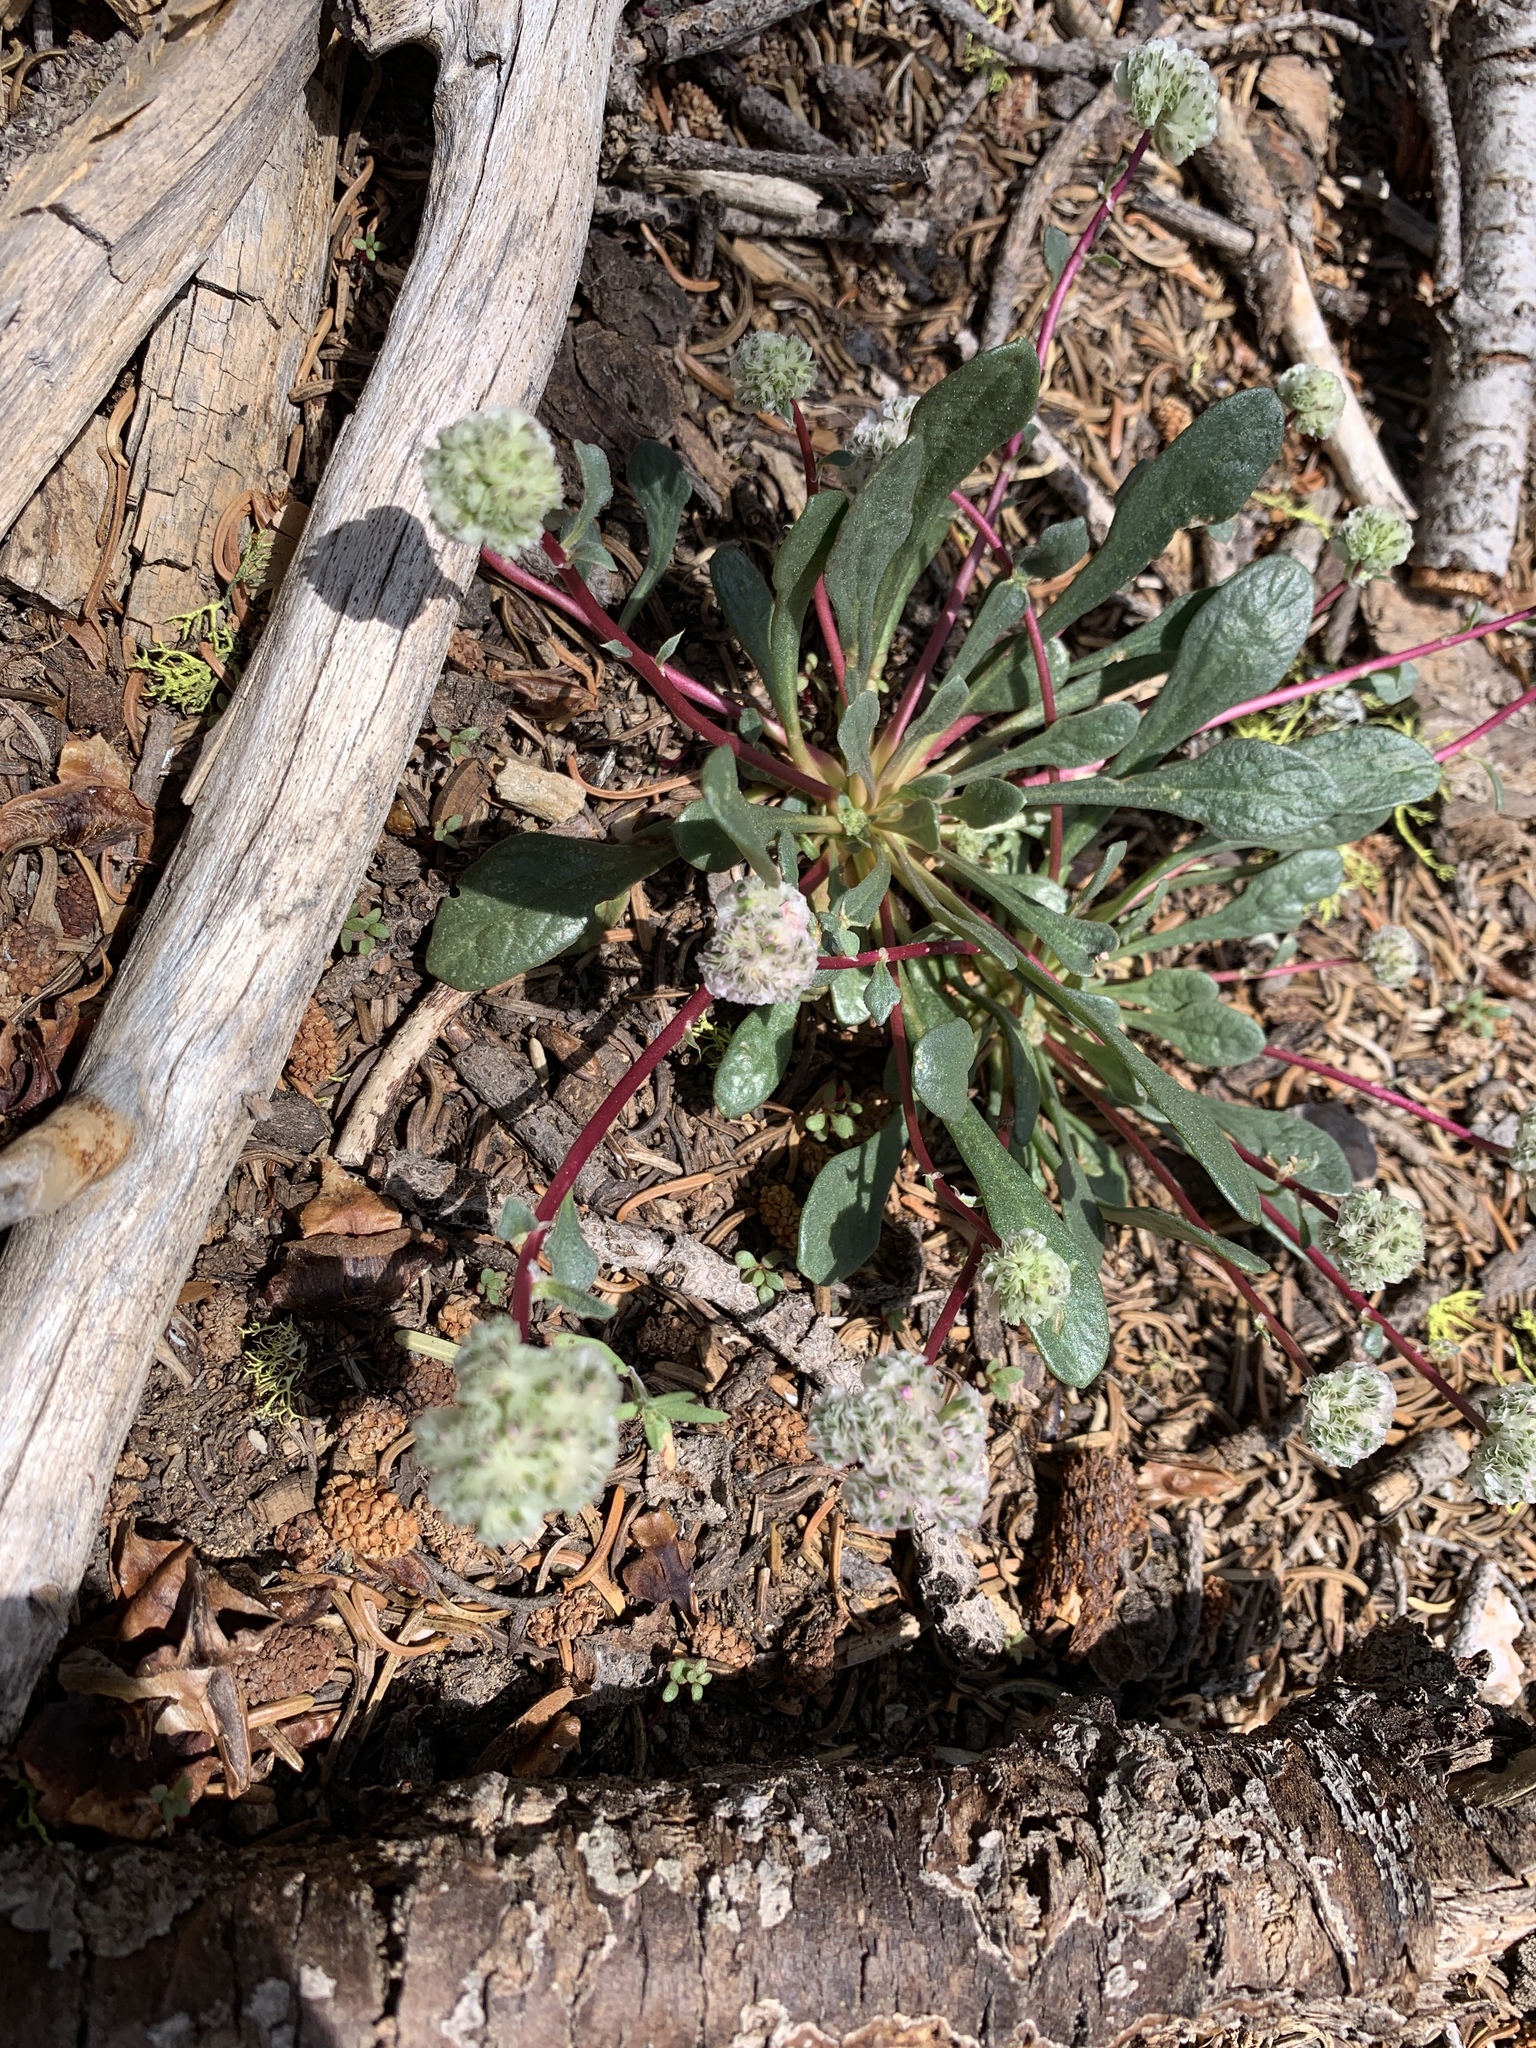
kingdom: Plantae
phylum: Tracheophyta
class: Magnoliopsida
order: Caryophyllales
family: Montiaceae
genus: Calyptridium
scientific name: Calyptridium monospermum
